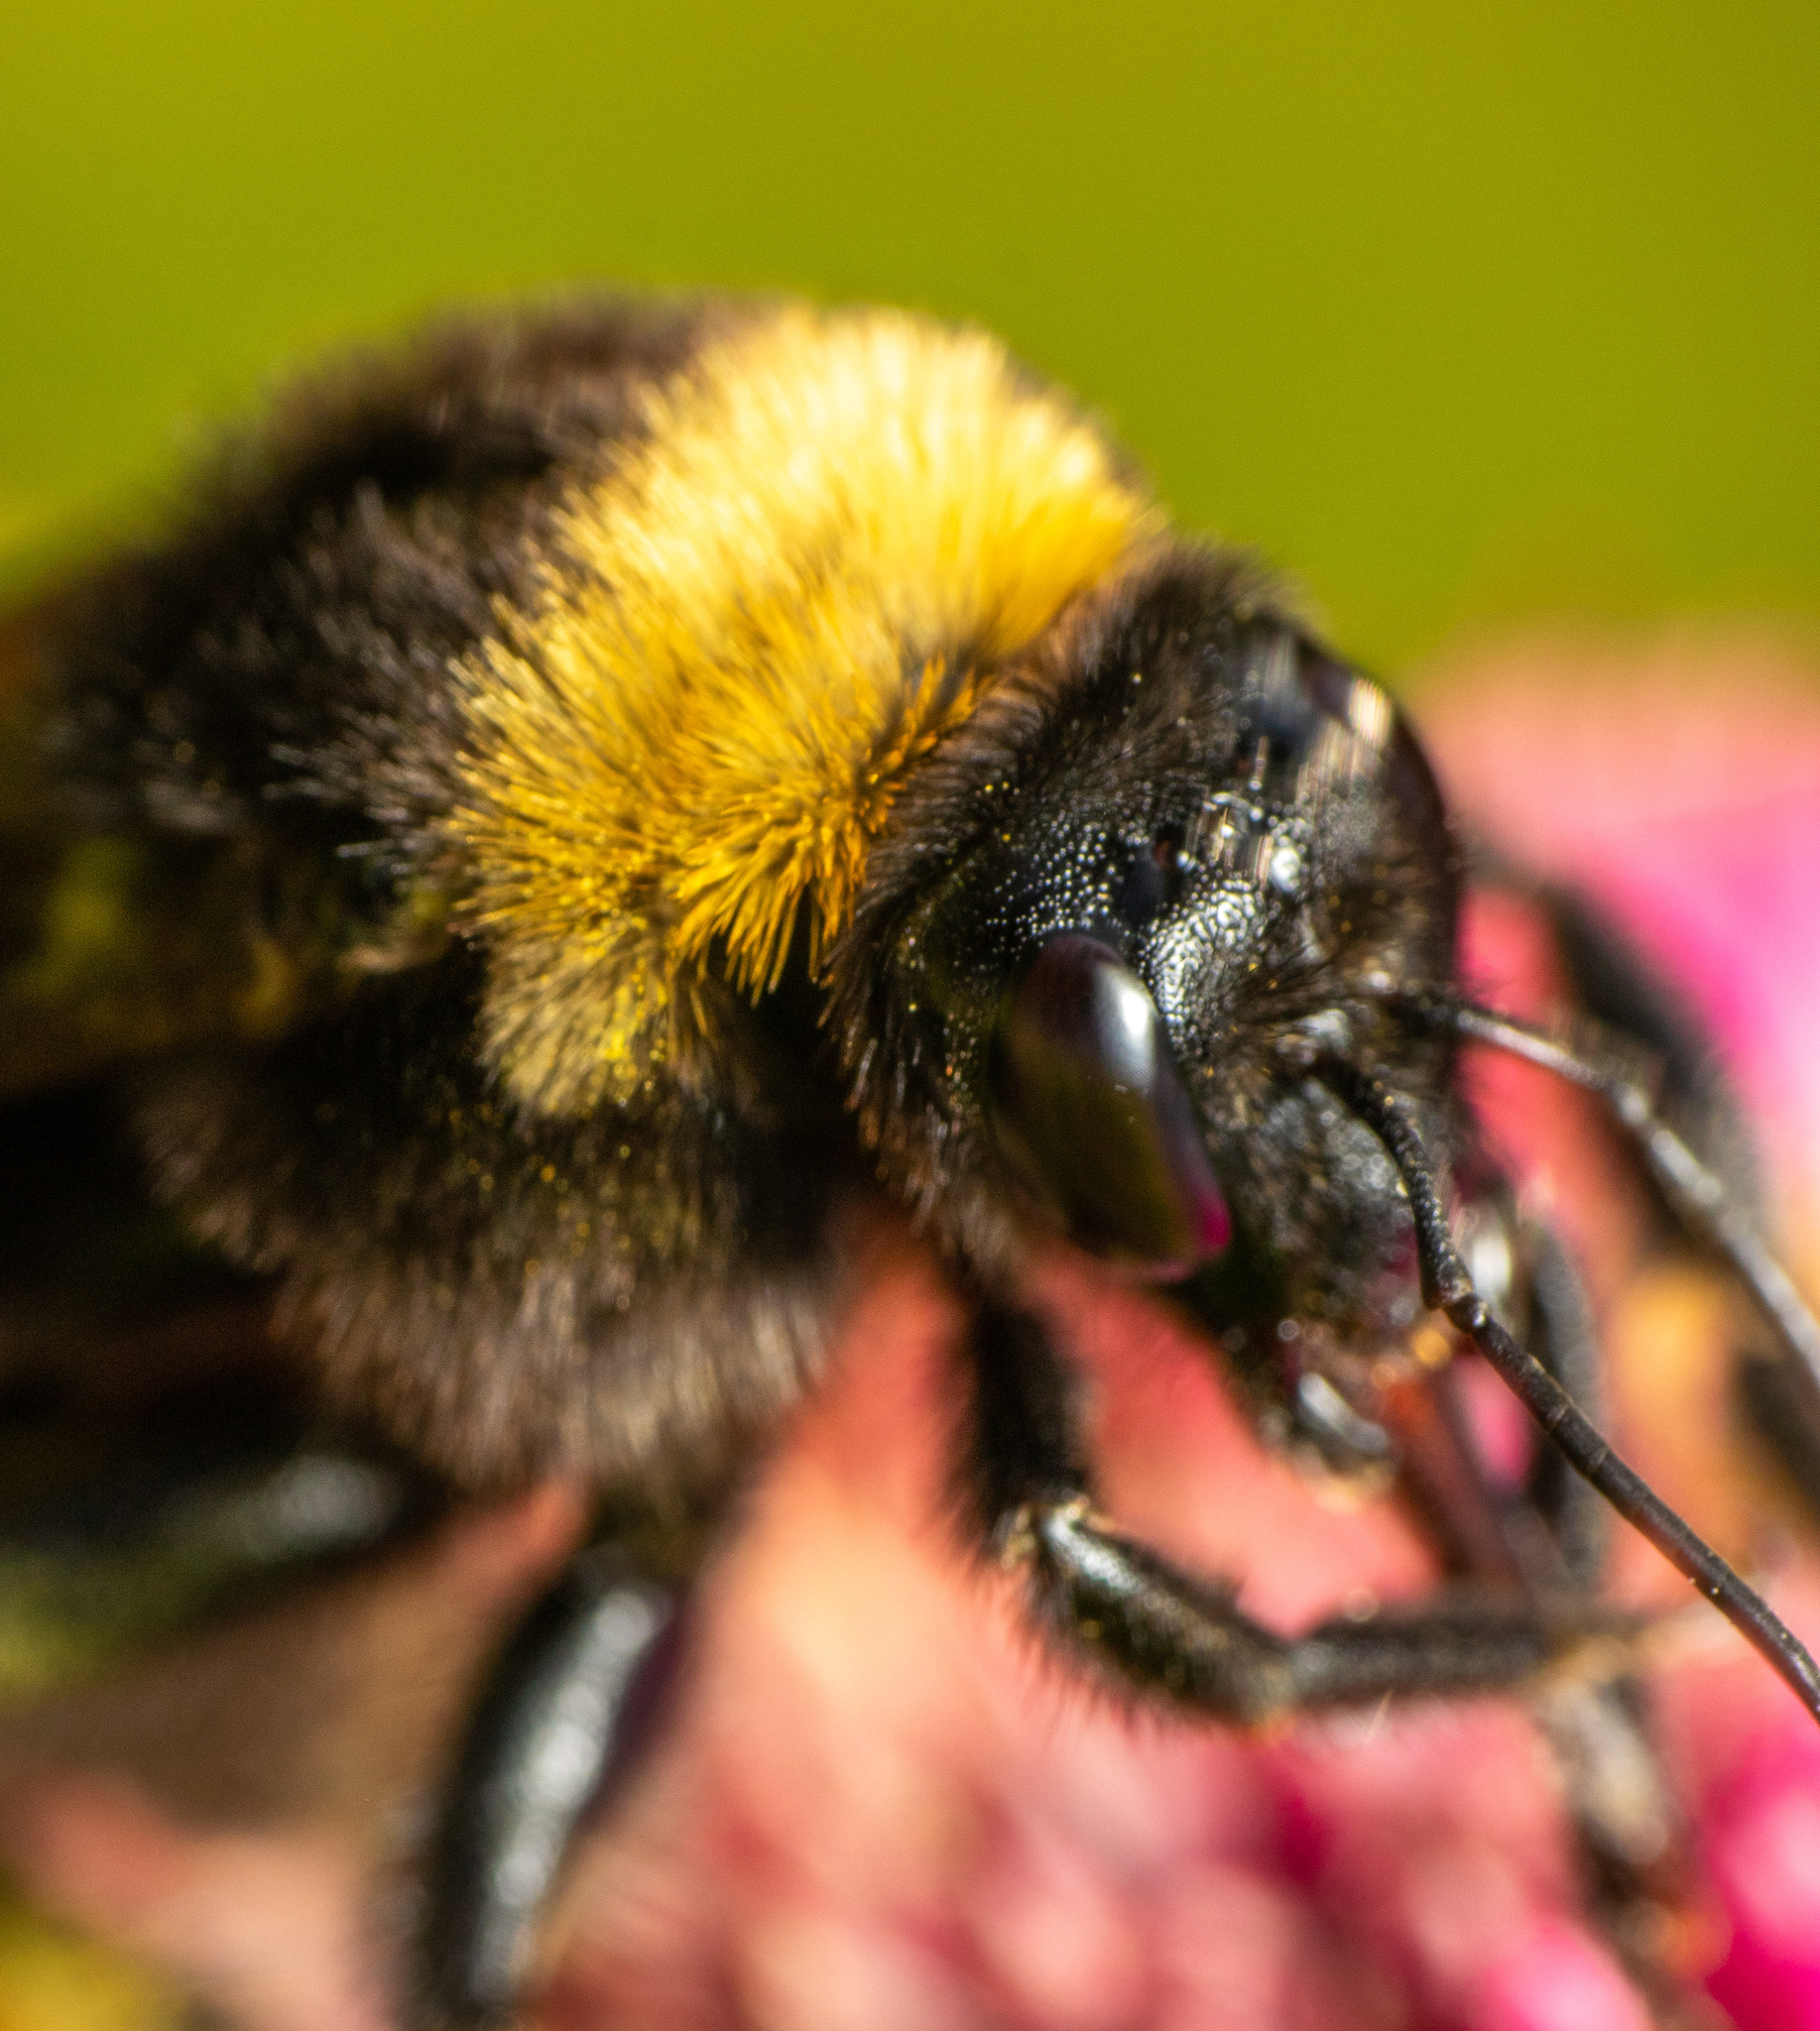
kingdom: Animalia
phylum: Arthropoda
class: Insecta
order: Hymenoptera
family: Apidae
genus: Bombus
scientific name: Bombus pensylvanicus
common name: Bumble bee
